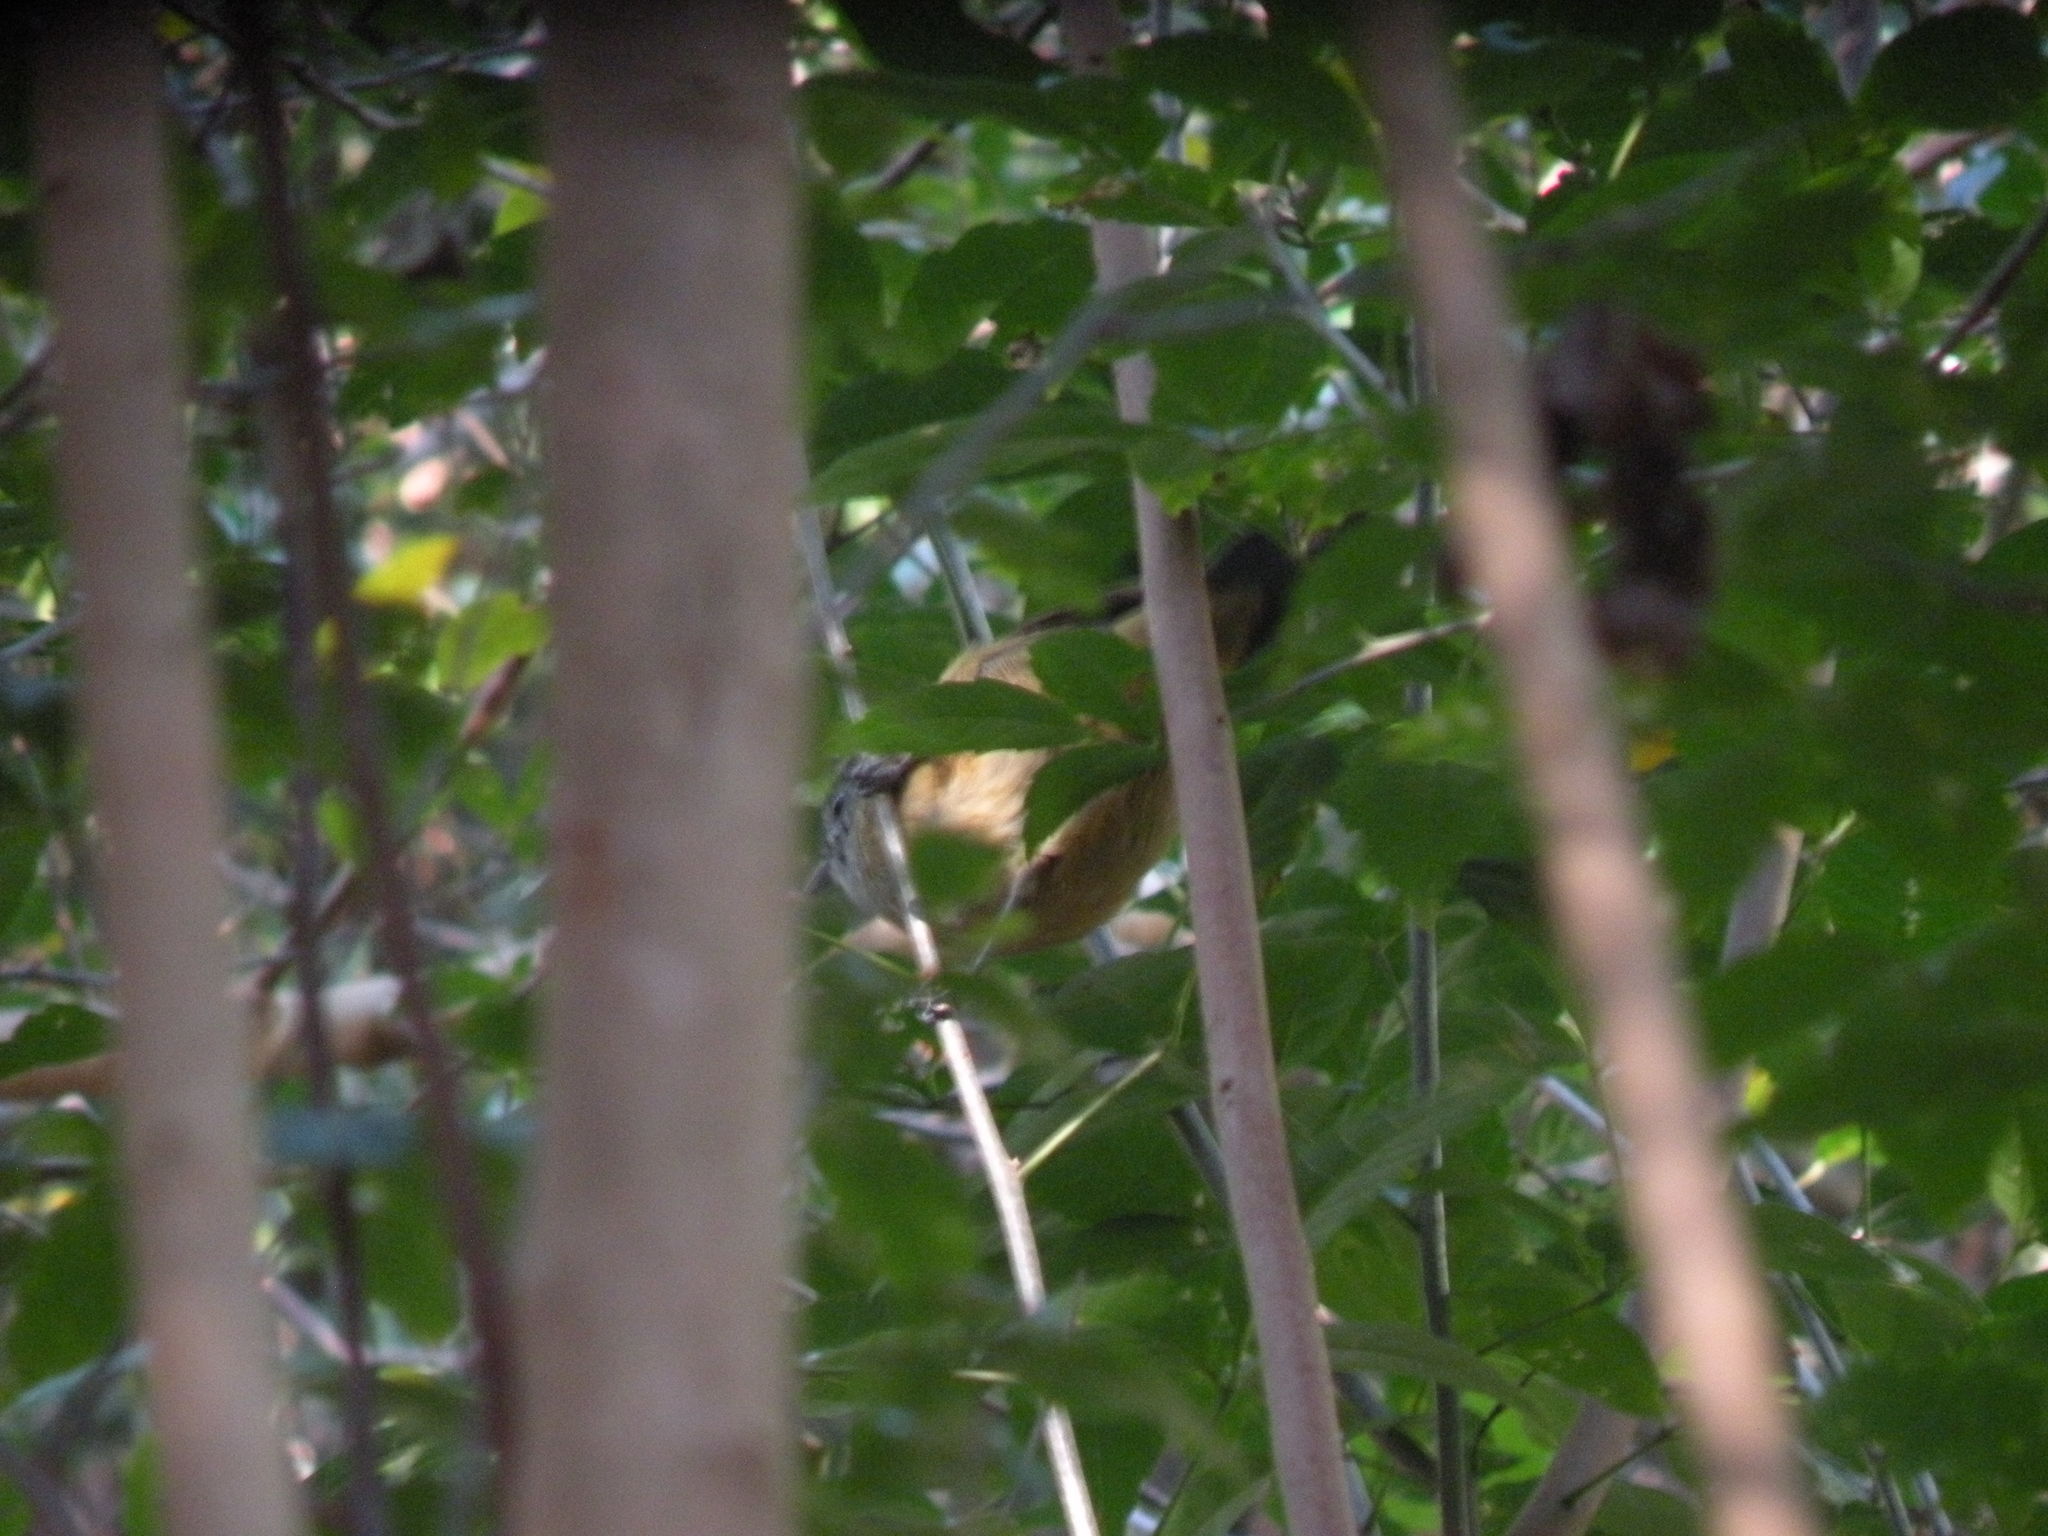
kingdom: Animalia
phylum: Chordata
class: Aves
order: Passeriformes
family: Thamnophilidae
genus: Thamnophilus
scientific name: Thamnophilus caerulescens
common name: Variable antshrike
